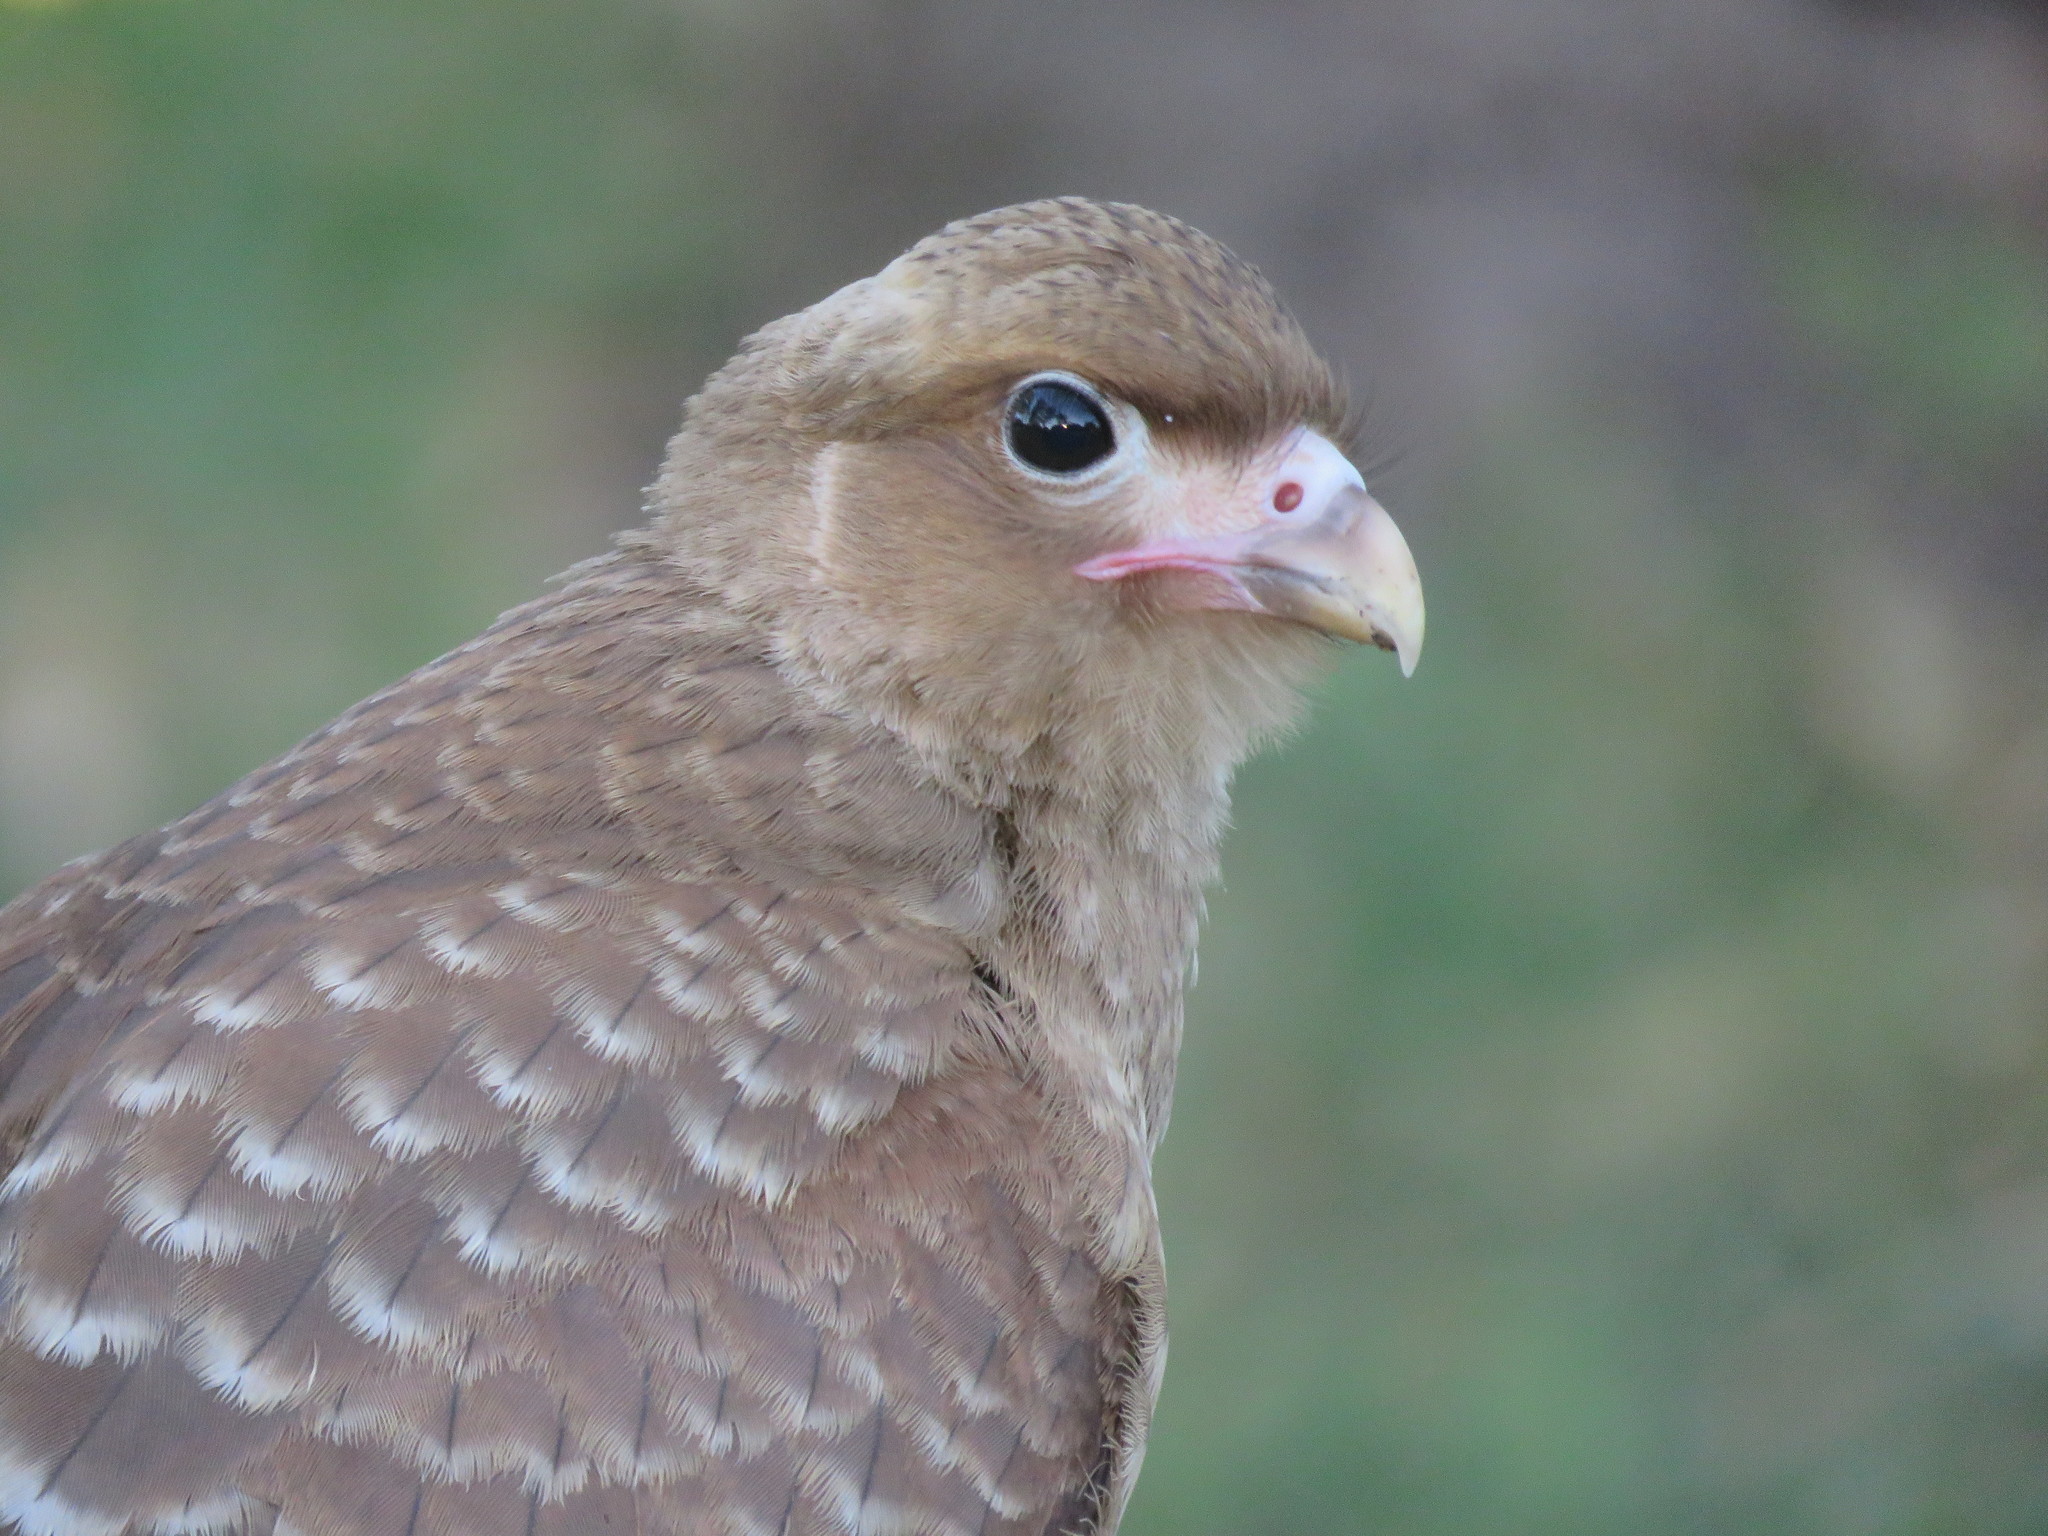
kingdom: Animalia
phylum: Chordata
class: Aves
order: Falconiformes
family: Falconidae
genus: Daptrius
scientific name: Daptrius
